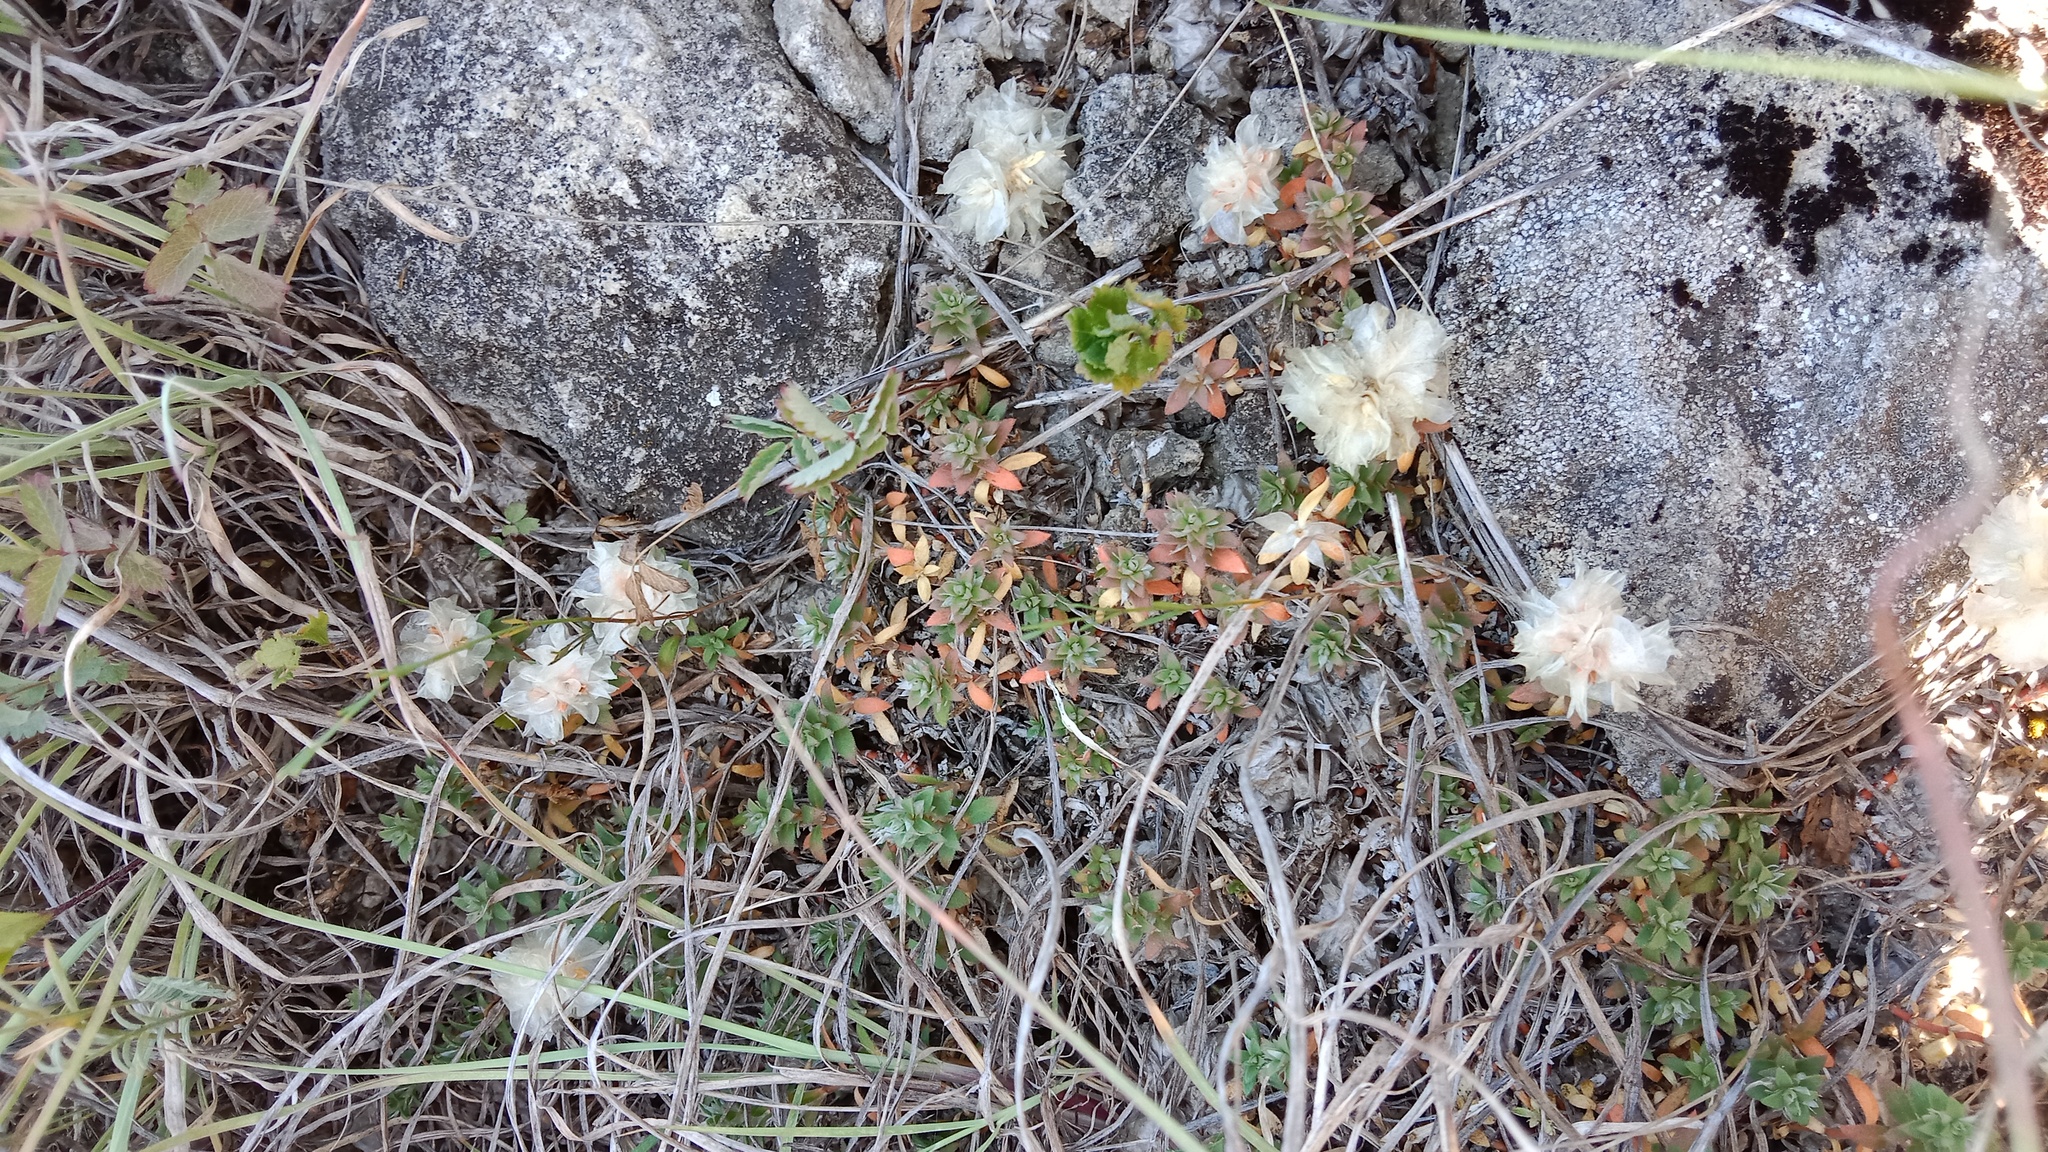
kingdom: Plantae
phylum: Tracheophyta
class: Magnoliopsida
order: Caryophyllales
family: Caryophyllaceae
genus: Paronychia
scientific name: Paronychia cephalotes
